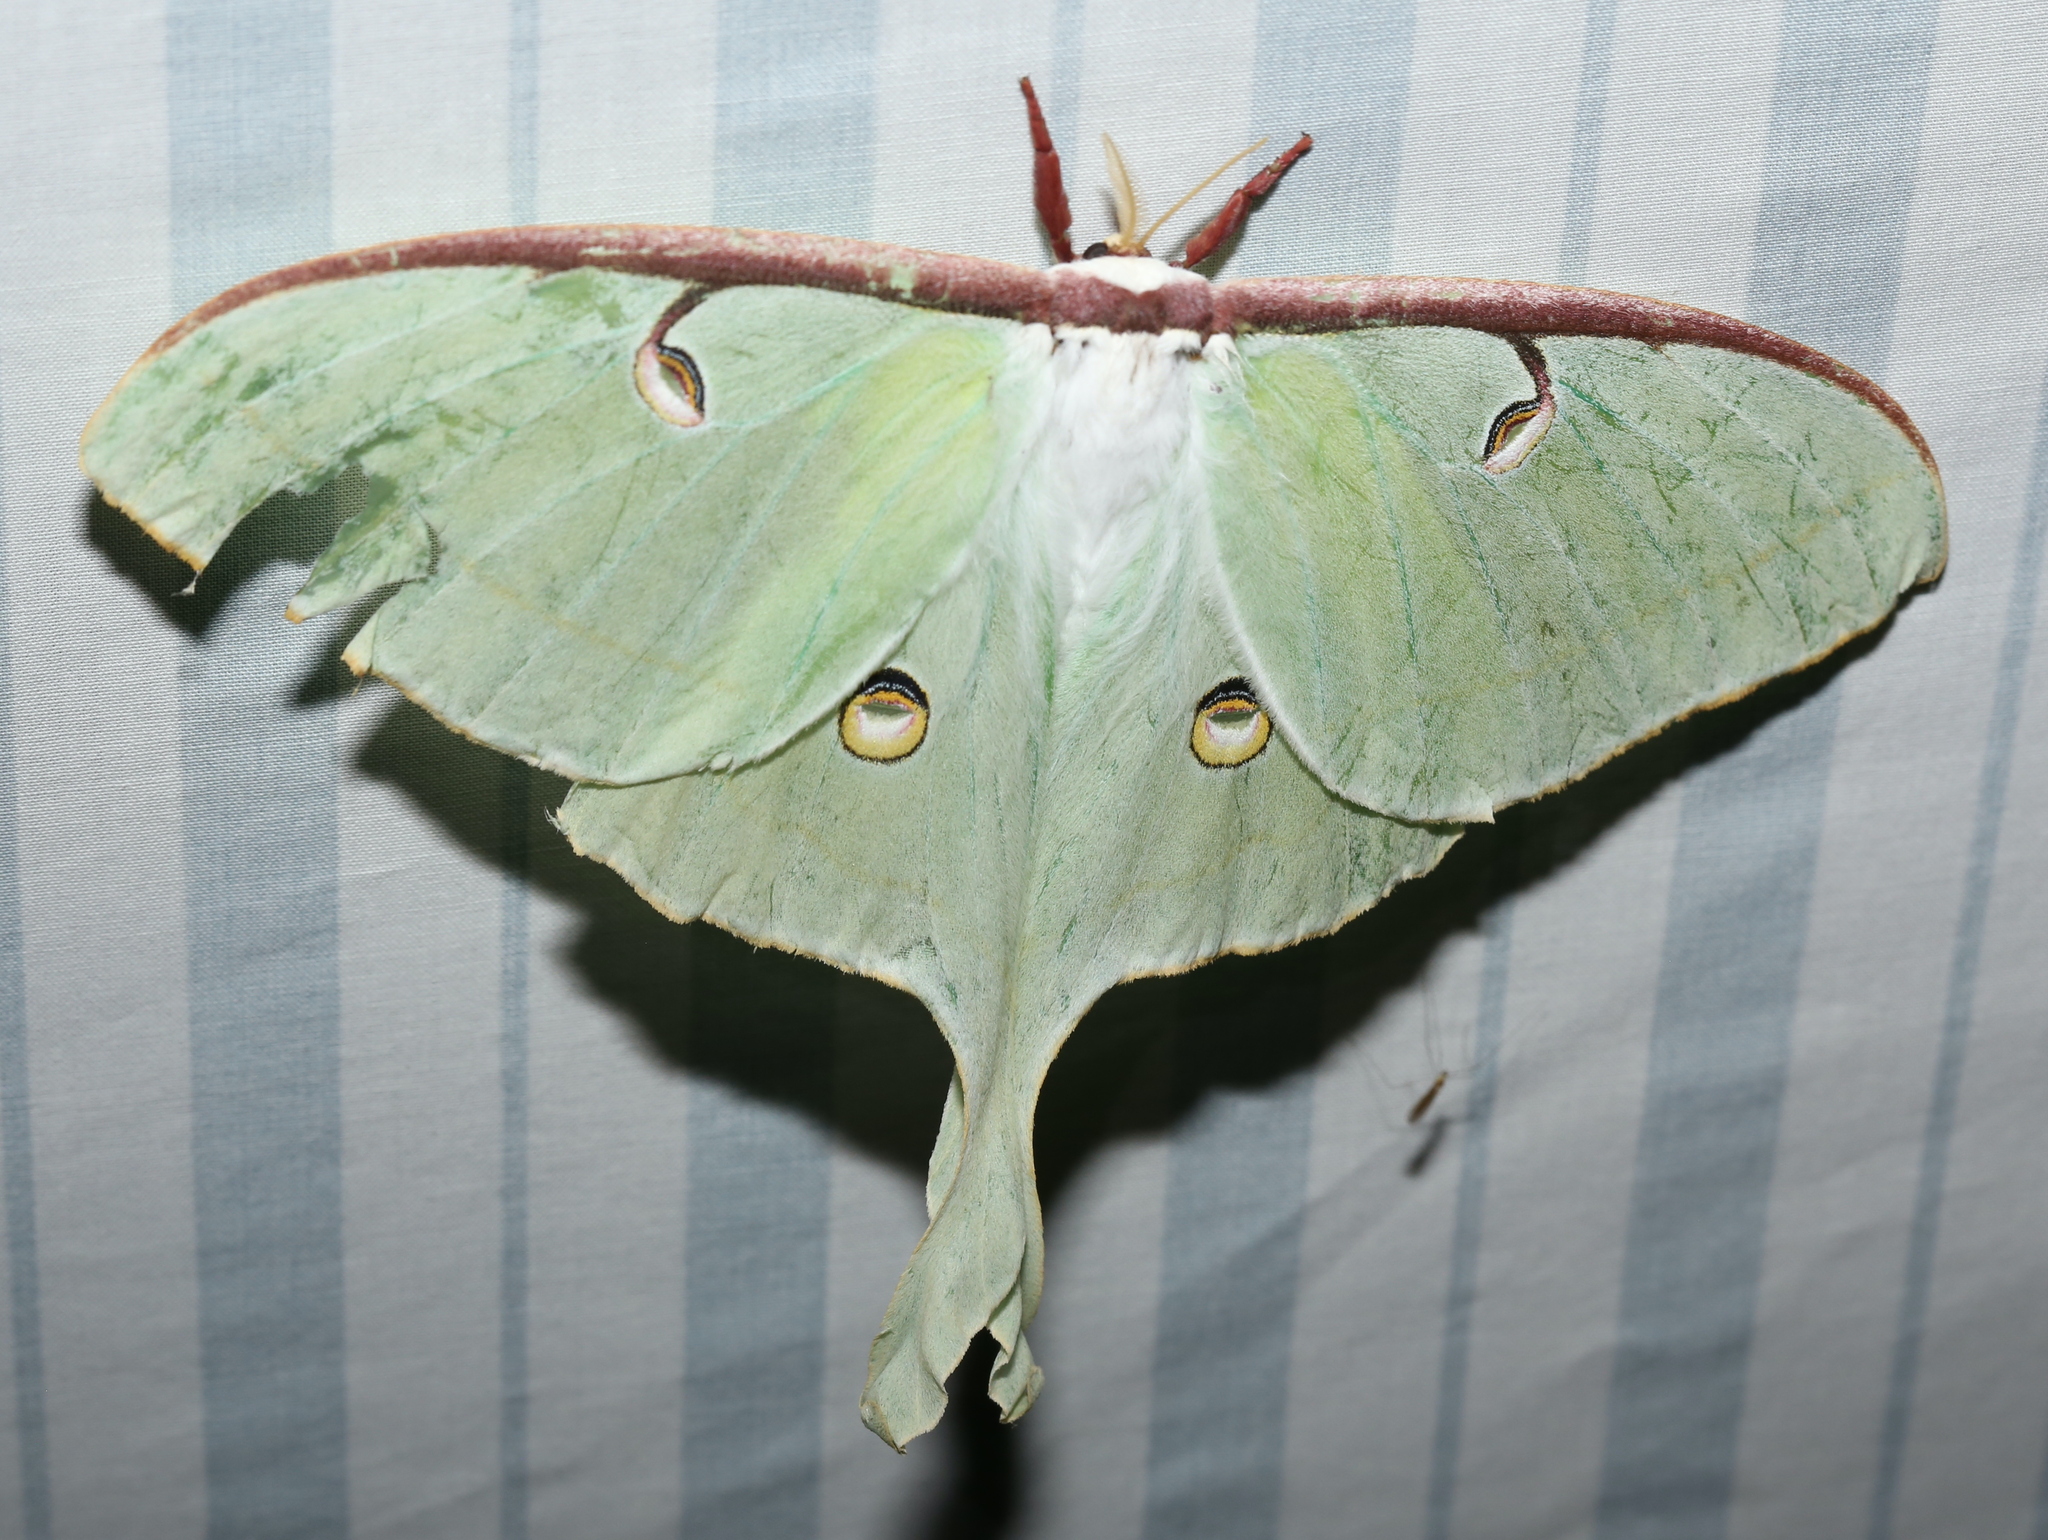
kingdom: Animalia
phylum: Arthropoda
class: Insecta
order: Lepidoptera
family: Saturniidae
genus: Actias
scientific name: Actias luna
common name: Luna moth
